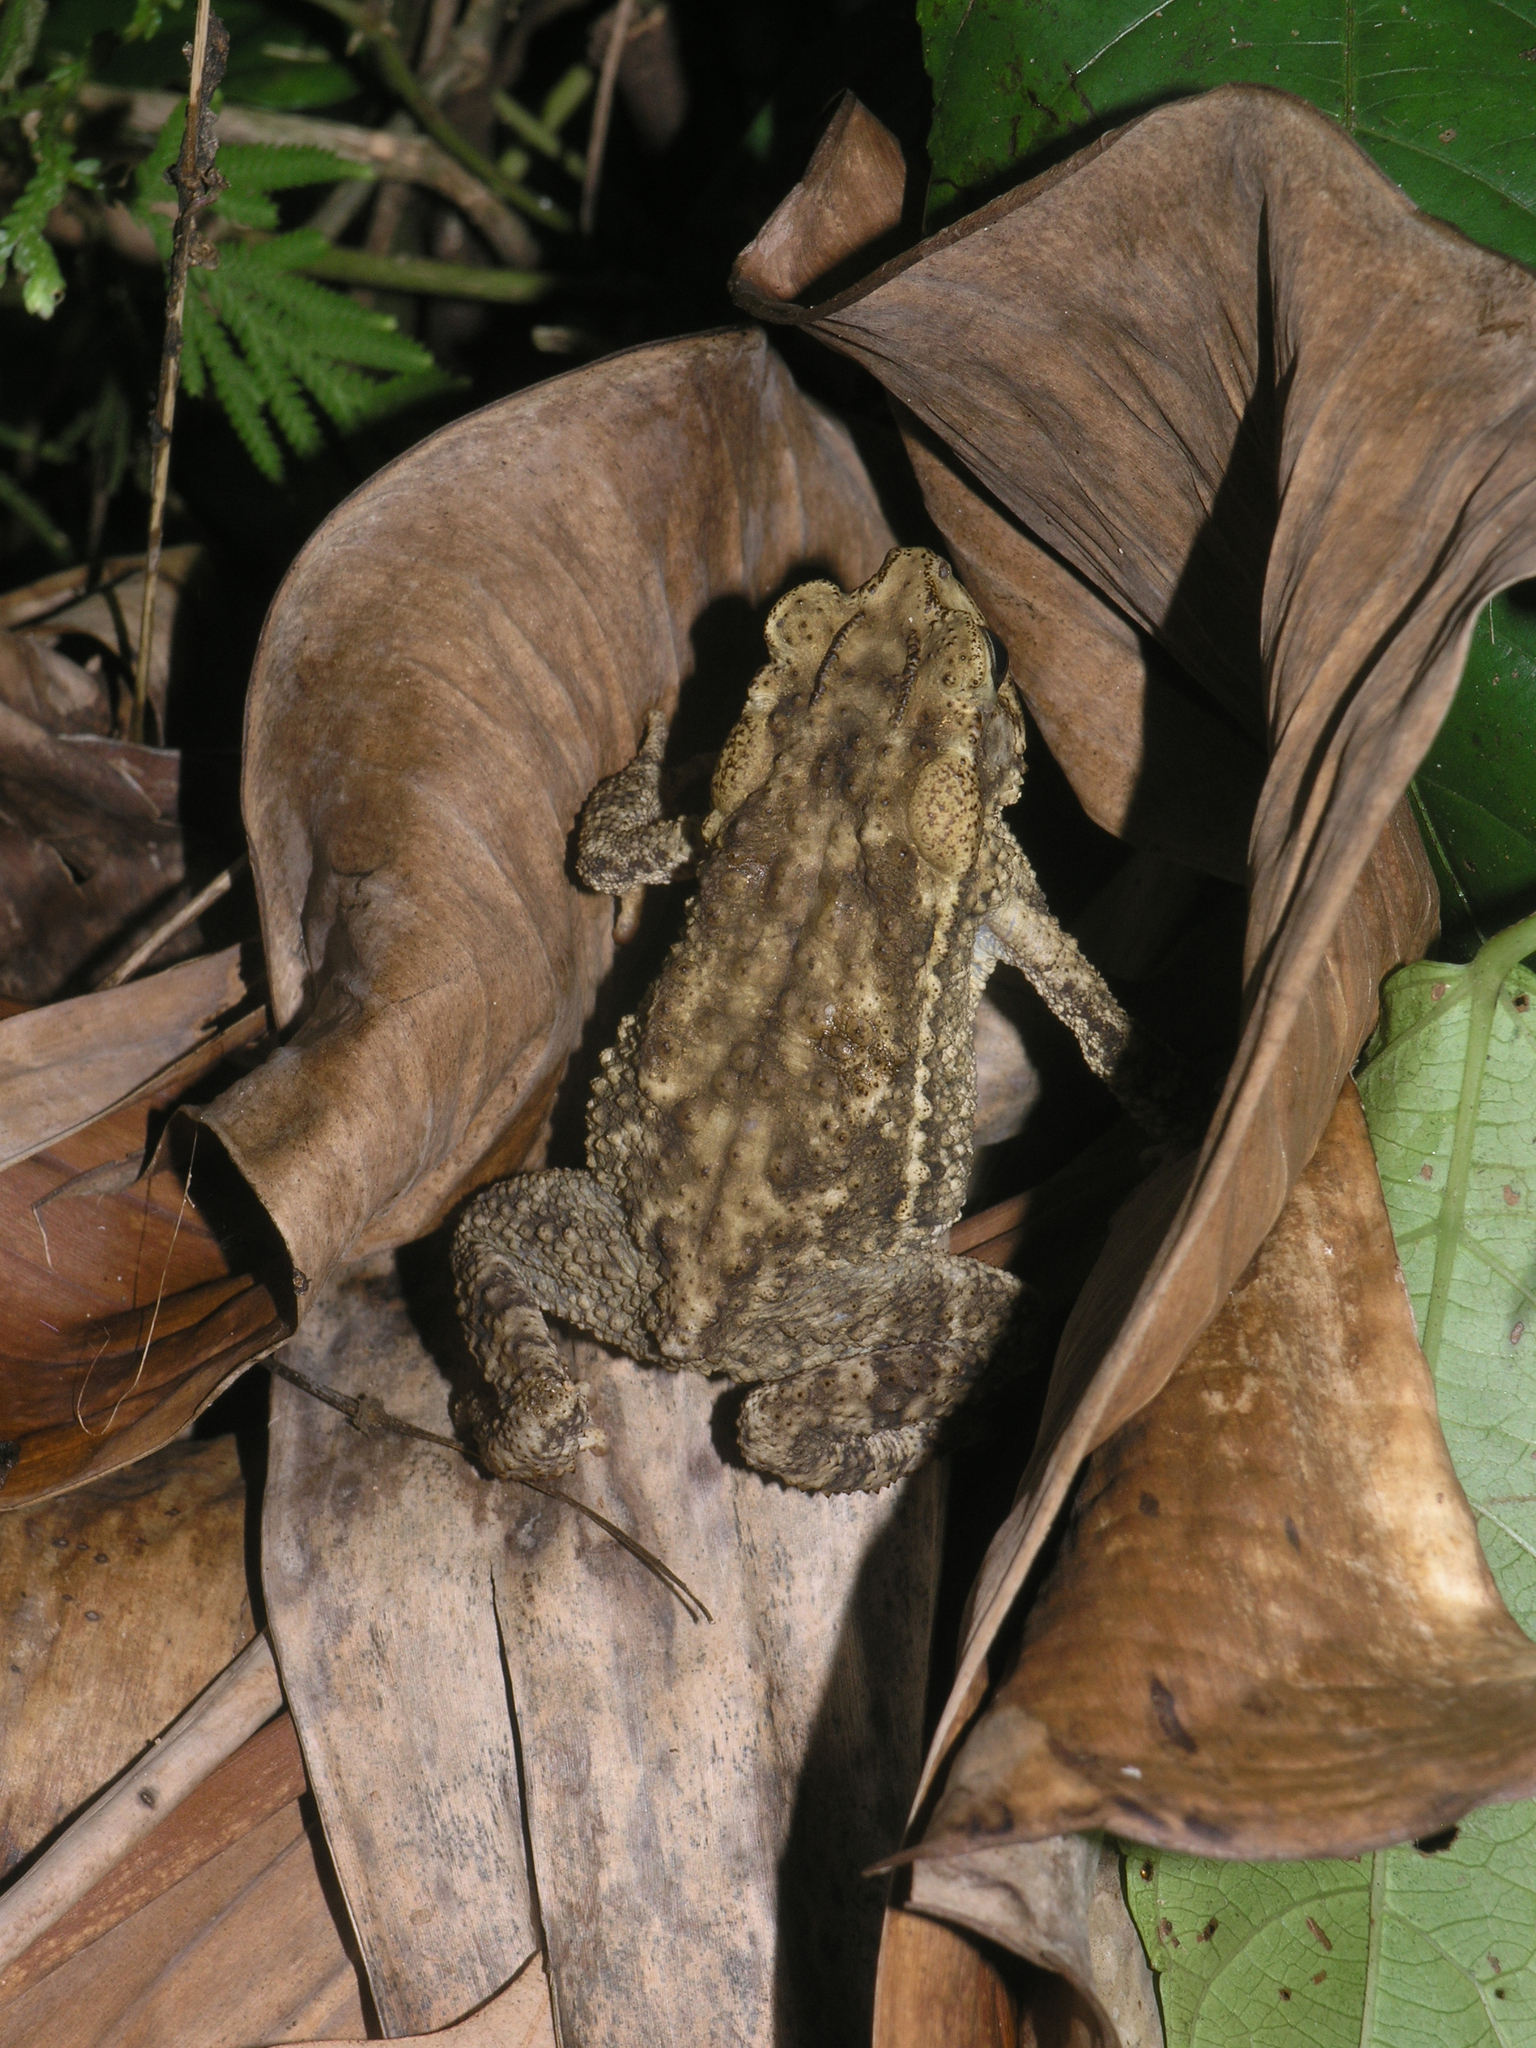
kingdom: Animalia
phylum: Chordata
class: Amphibia
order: Anura
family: Bufonidae
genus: Ingerophrynus
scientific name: Ingerophrynus biporcatus
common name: Crested toad
